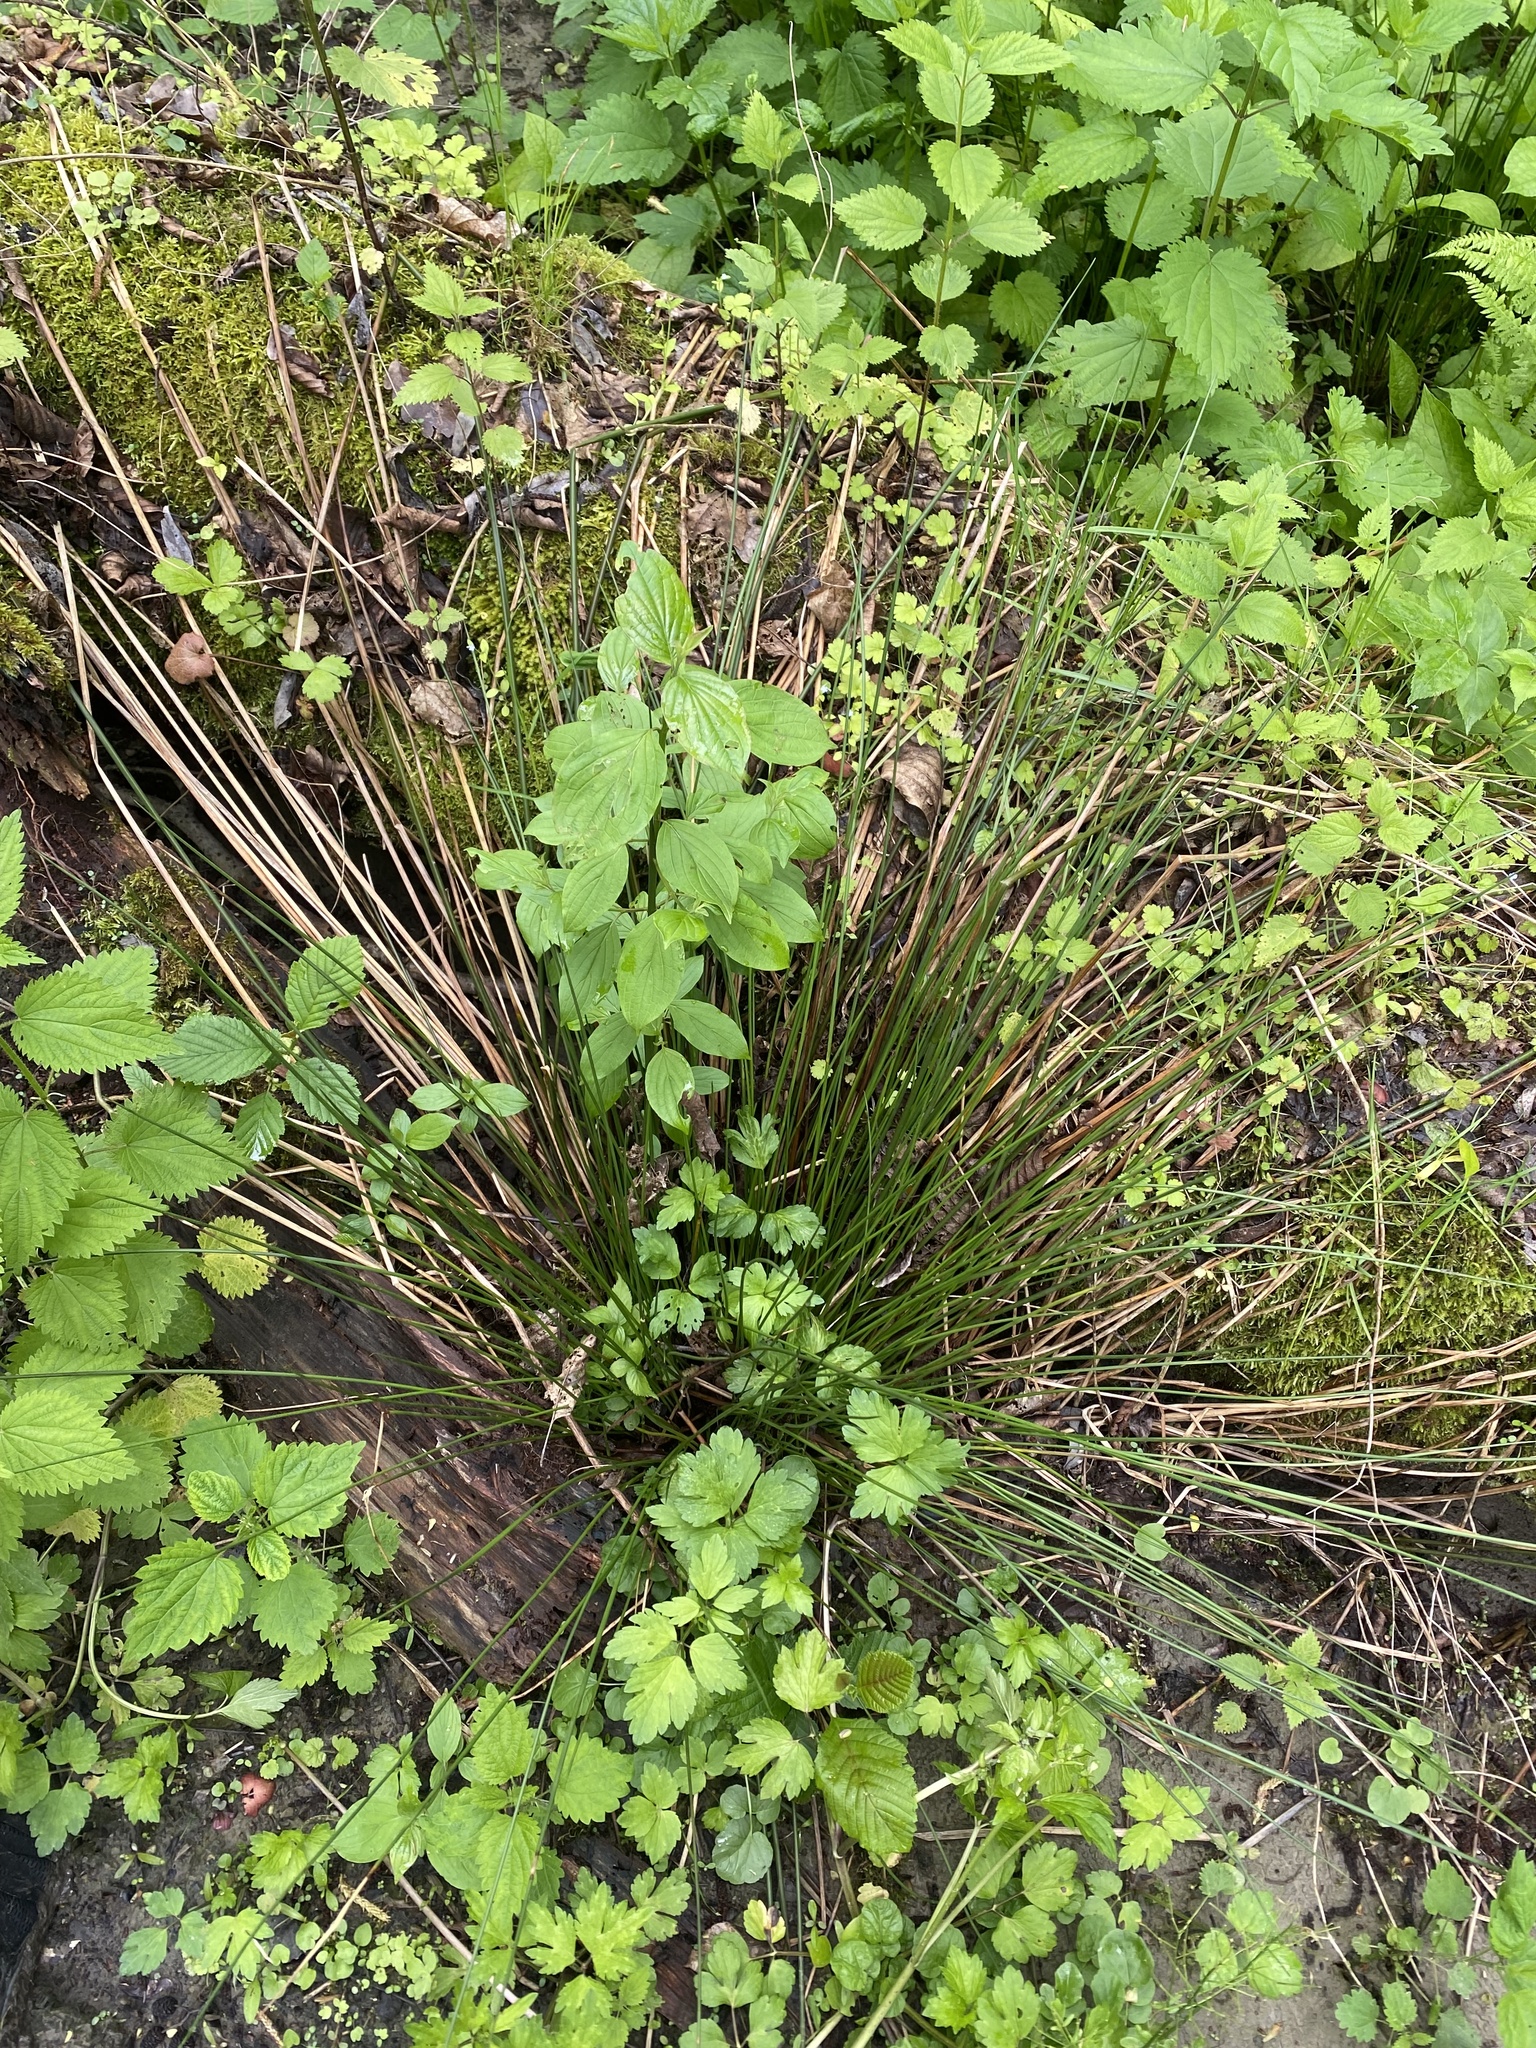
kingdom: Plantae
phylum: Tracheophyta
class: Liliopsida
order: Poales
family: Juncaceae
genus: Juncus
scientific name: Juncus effusus
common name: Soft rush
